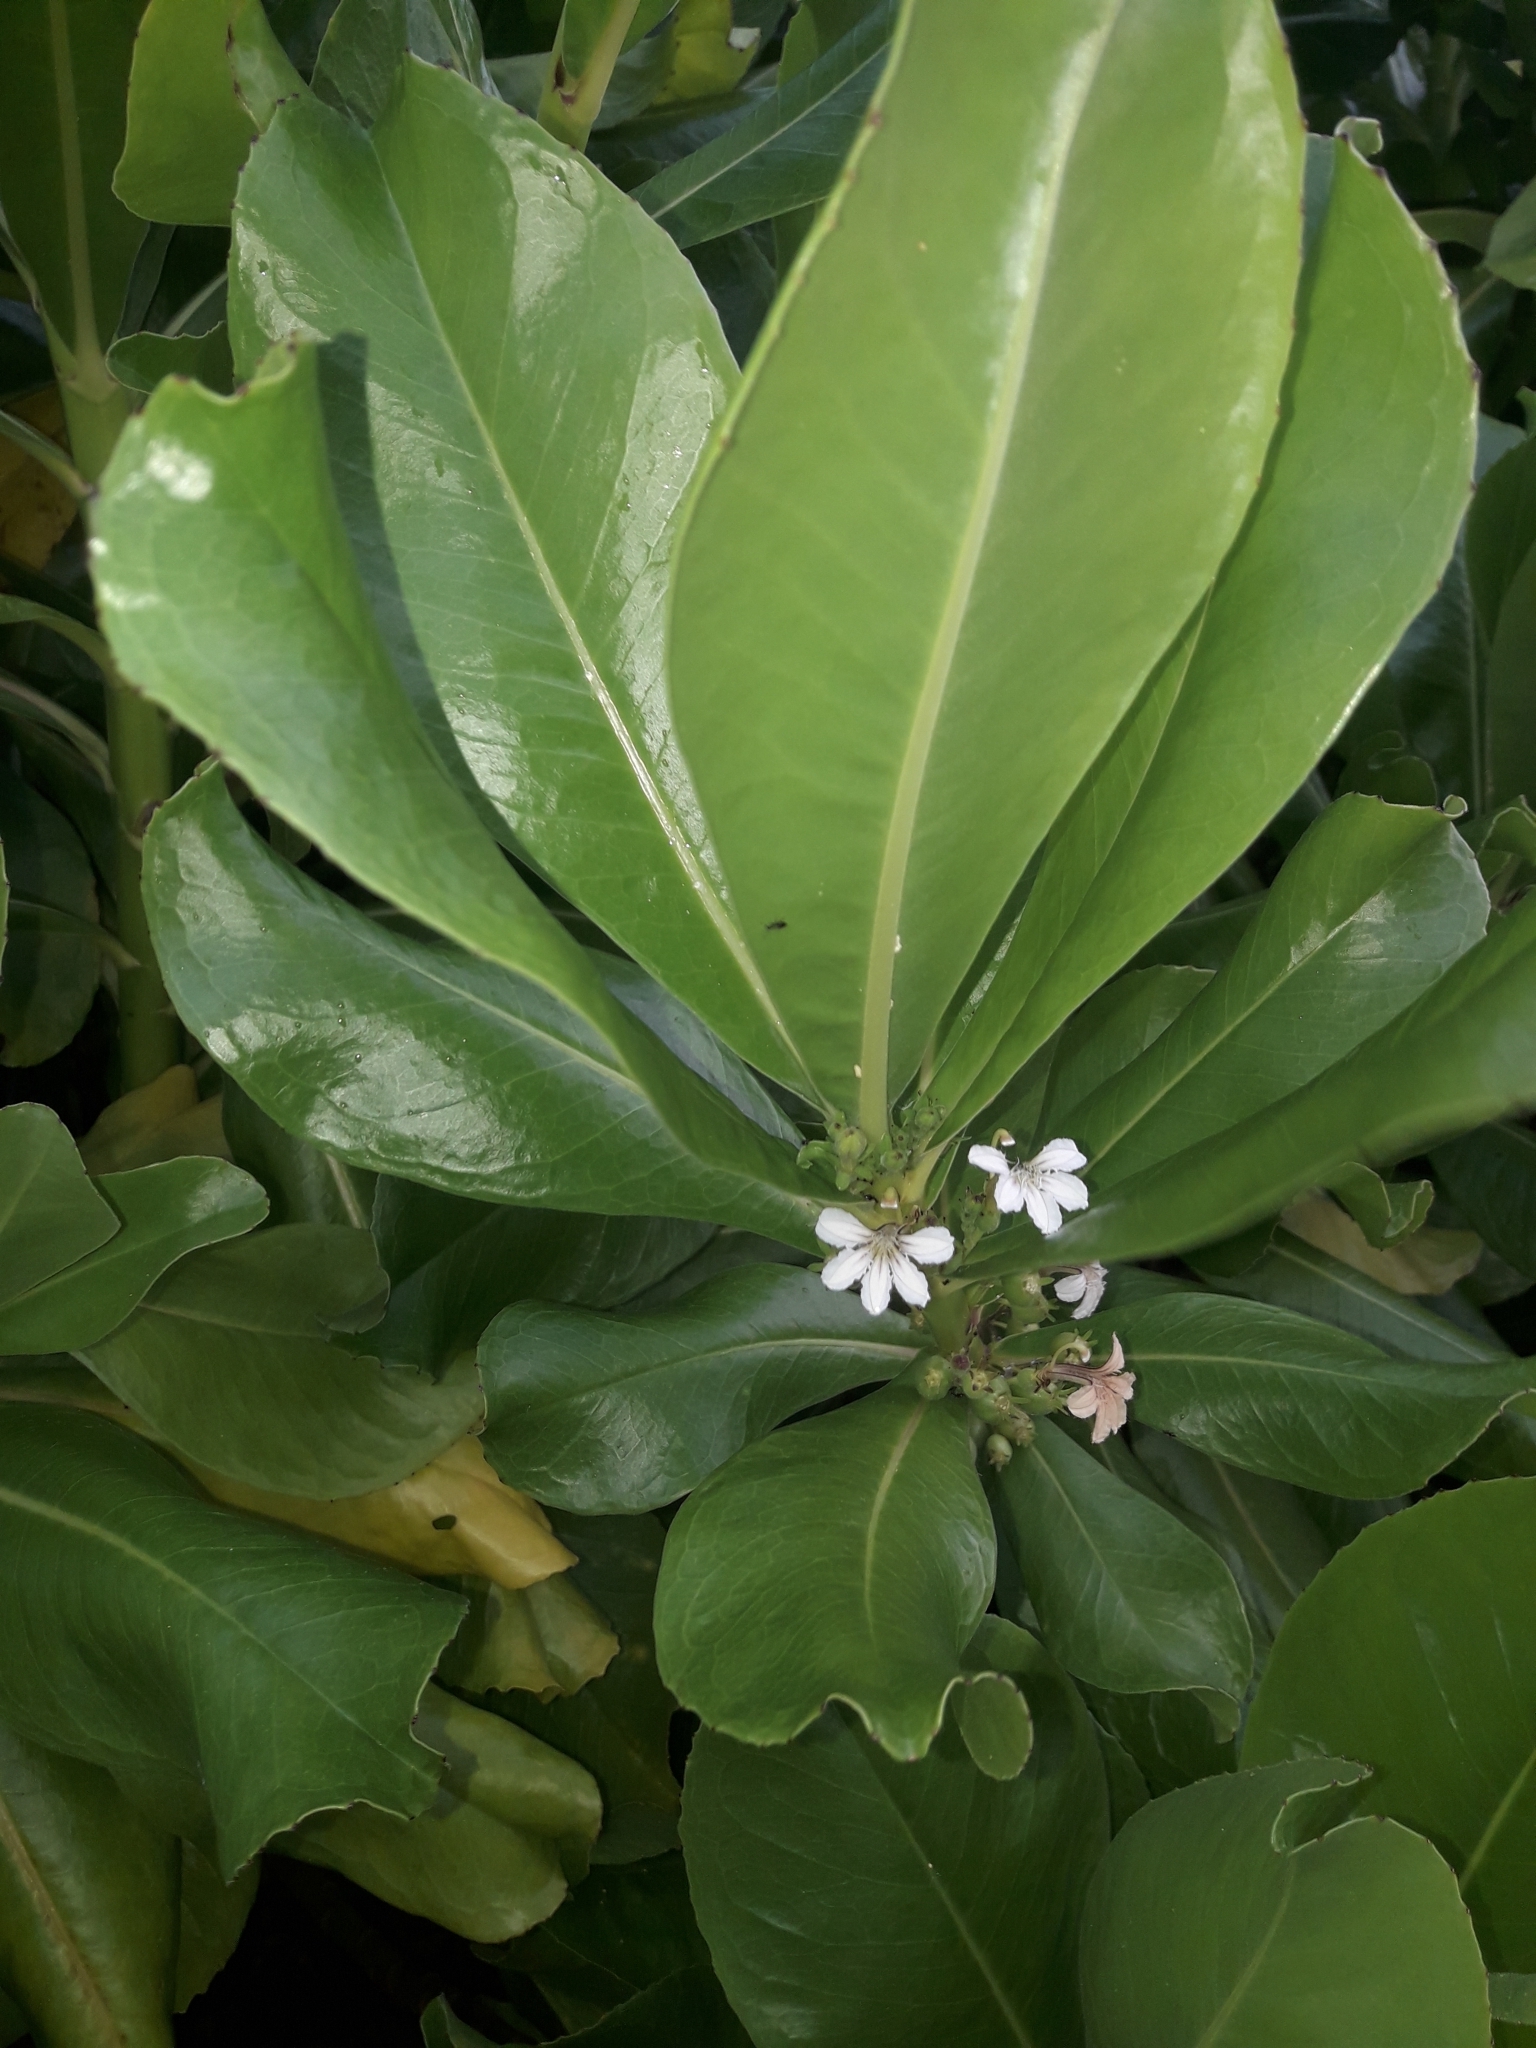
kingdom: Plantae
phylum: Tracheophyta
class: Magnoliopsida
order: Asterales
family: Goodeniaceae
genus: Scaevola
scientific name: Scaevola taccada
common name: Sea lettucetree
